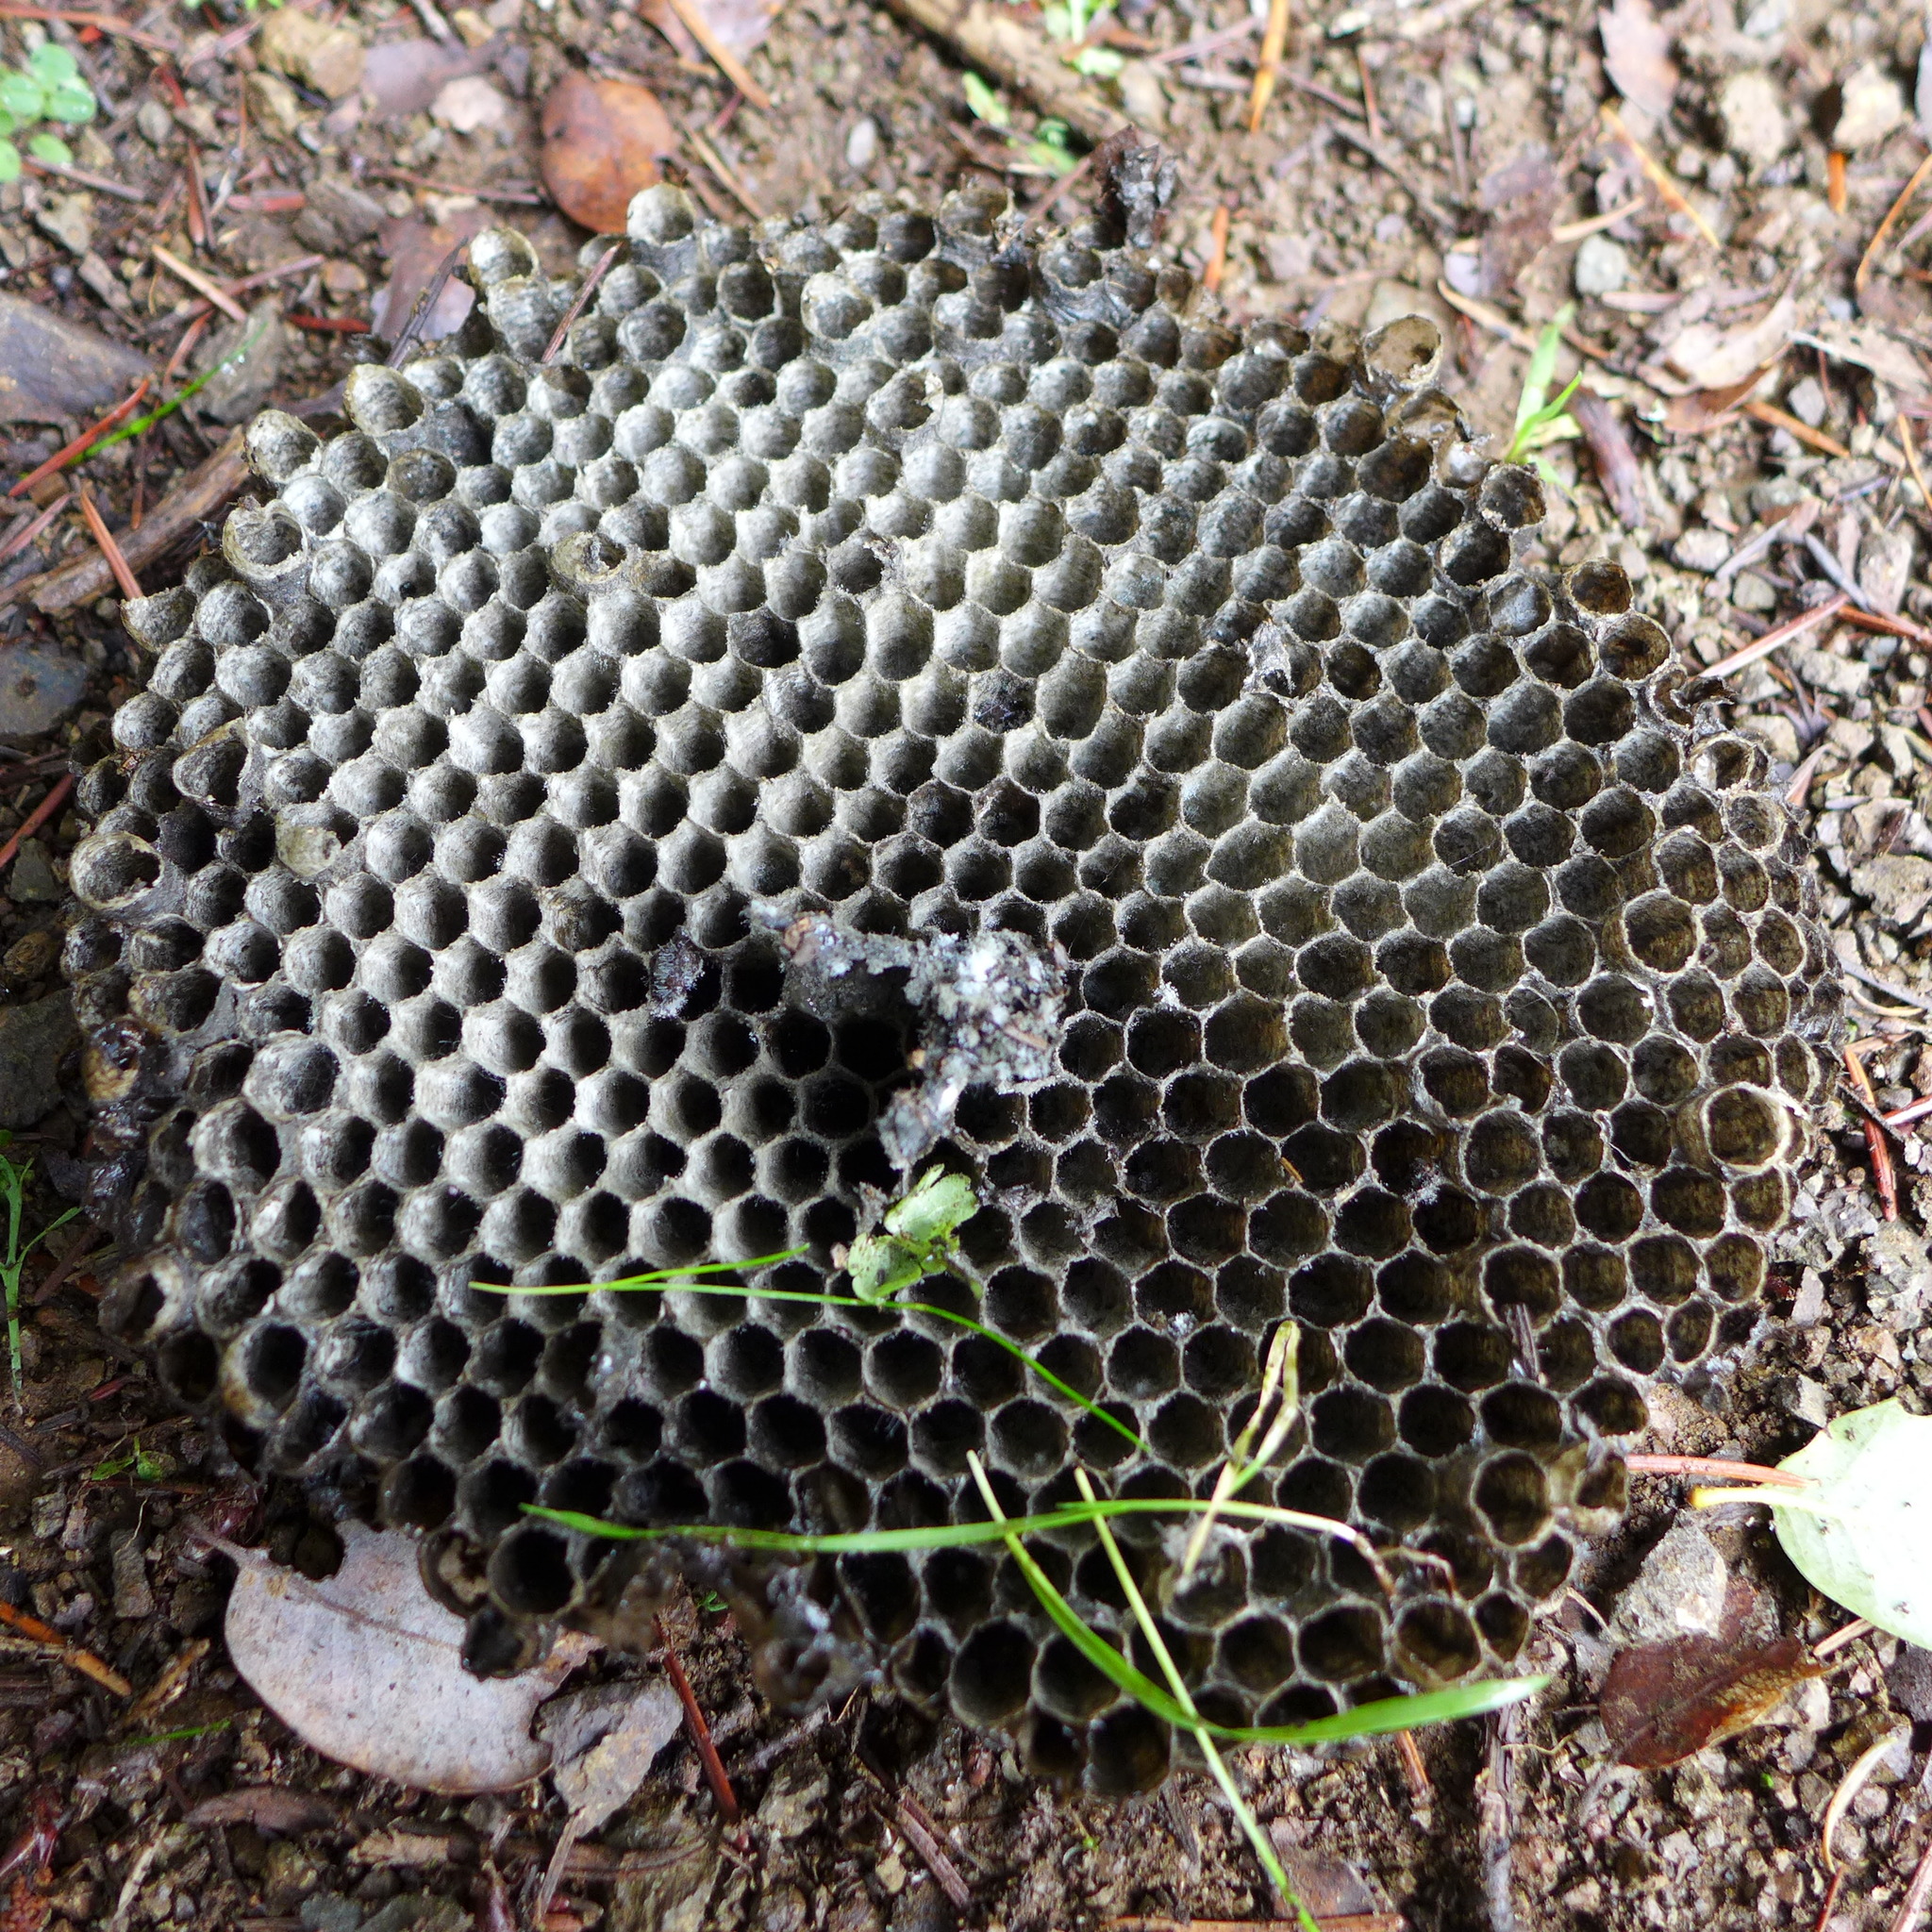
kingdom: Animalia
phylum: Arthropoda
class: Insecta
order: Hymenoptera
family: Vespidae
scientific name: Vespidae
